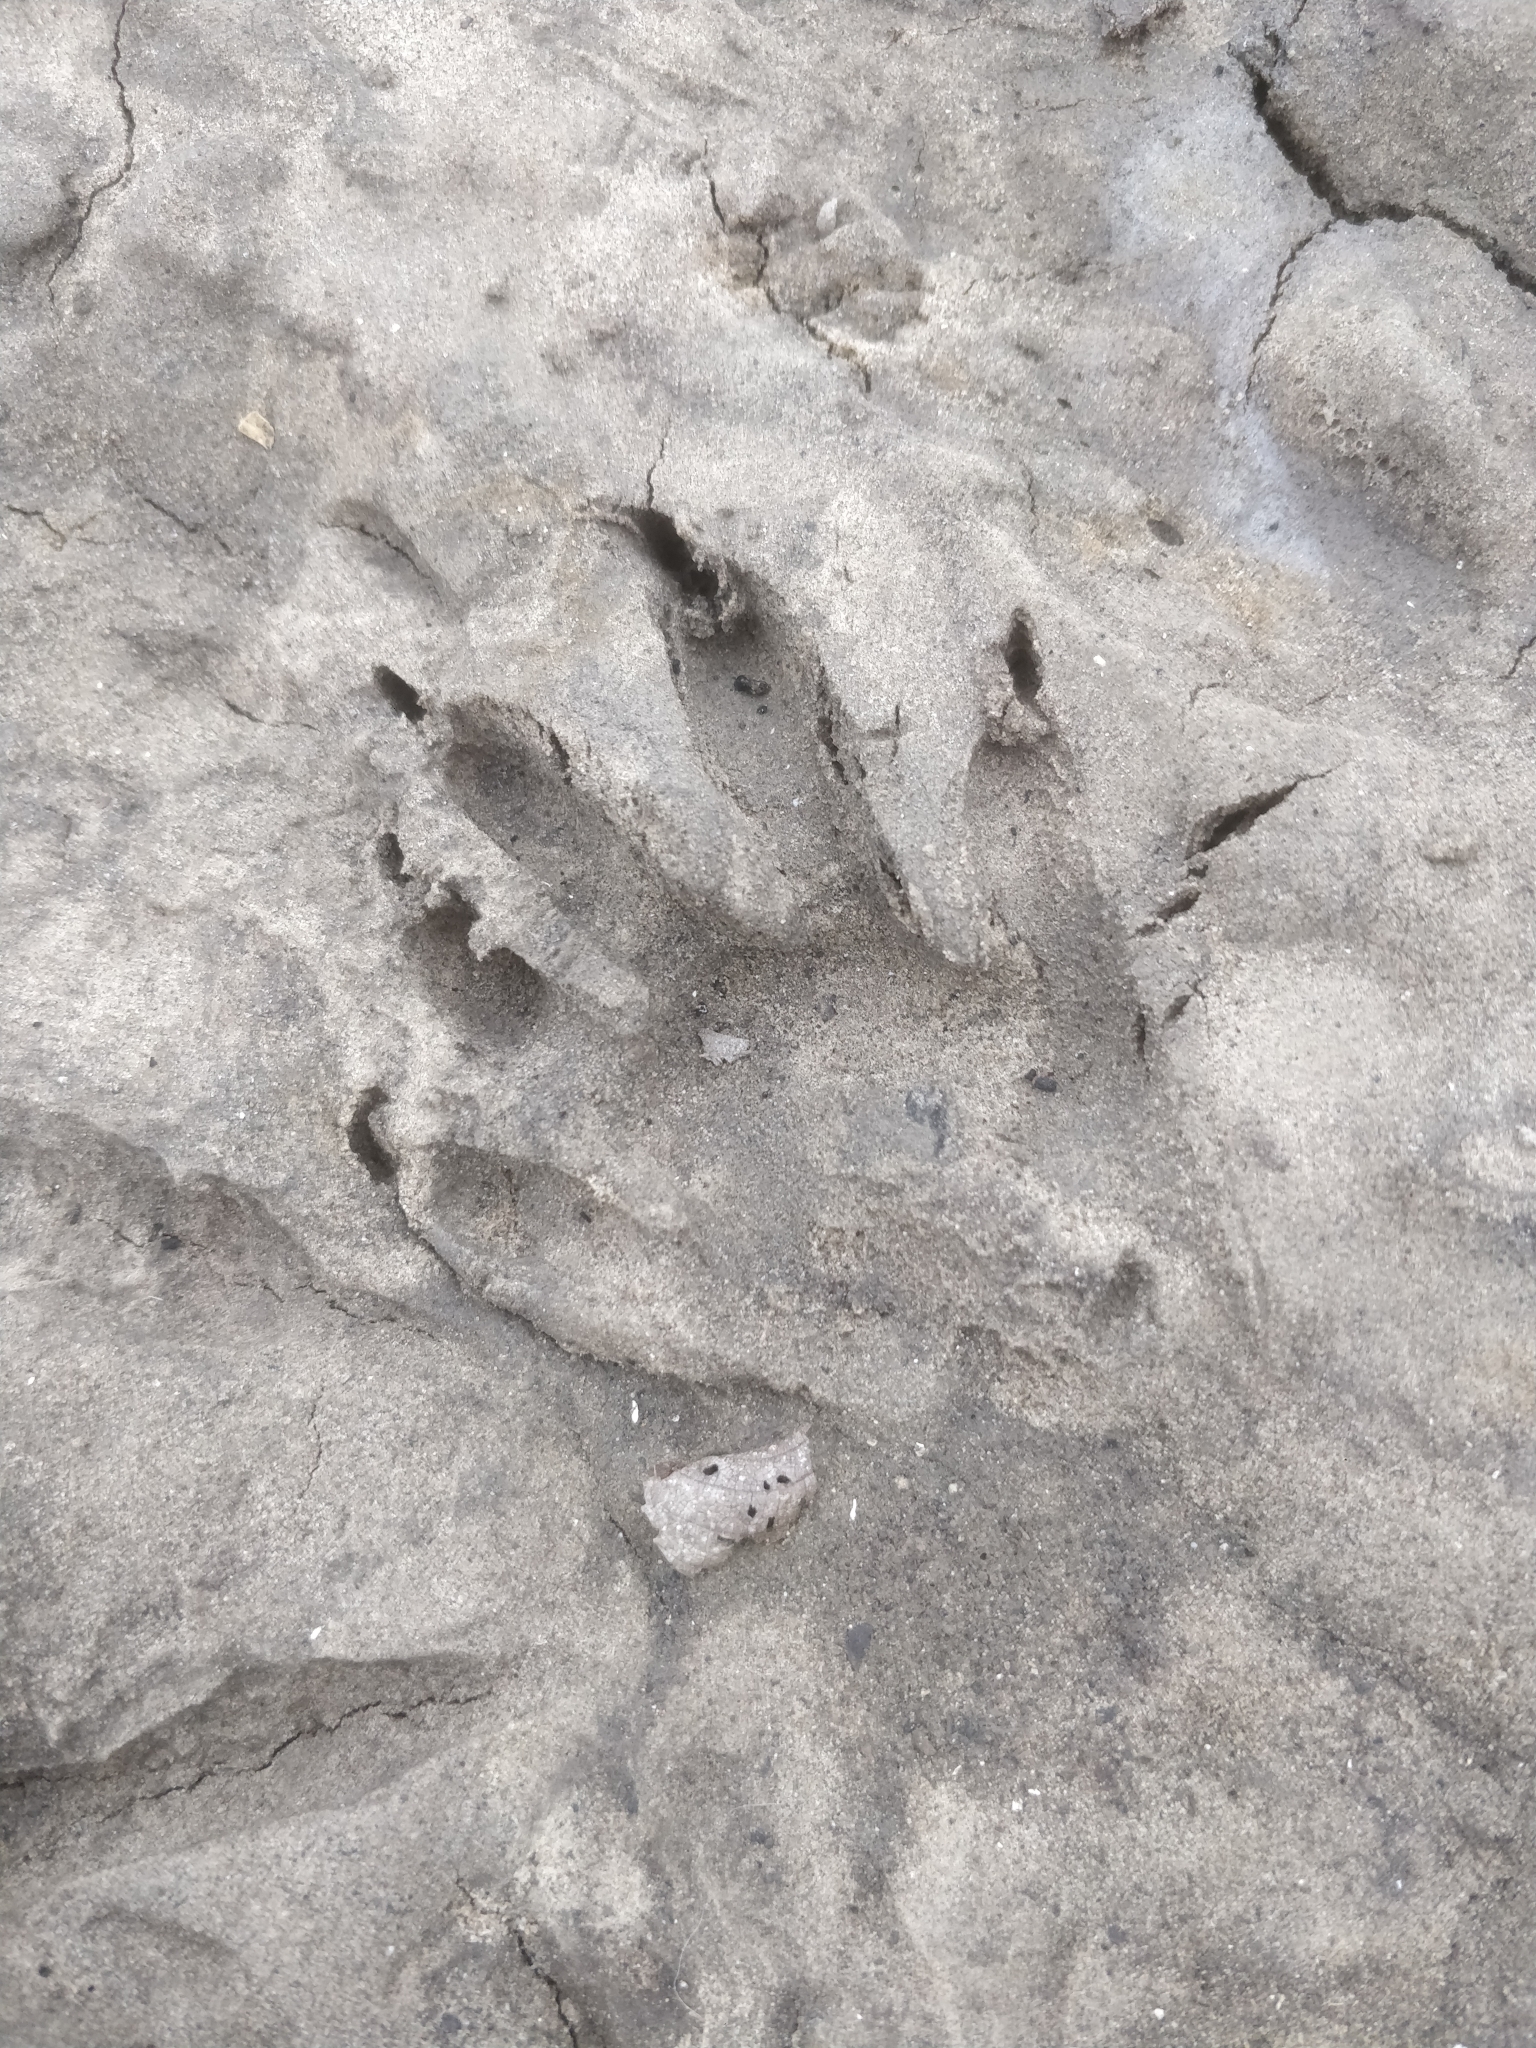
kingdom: Animalia
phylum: Chordata
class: Mammalia
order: Carnivora
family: Procyonidae
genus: Procyon
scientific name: Procyon lotor
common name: Raccoon
